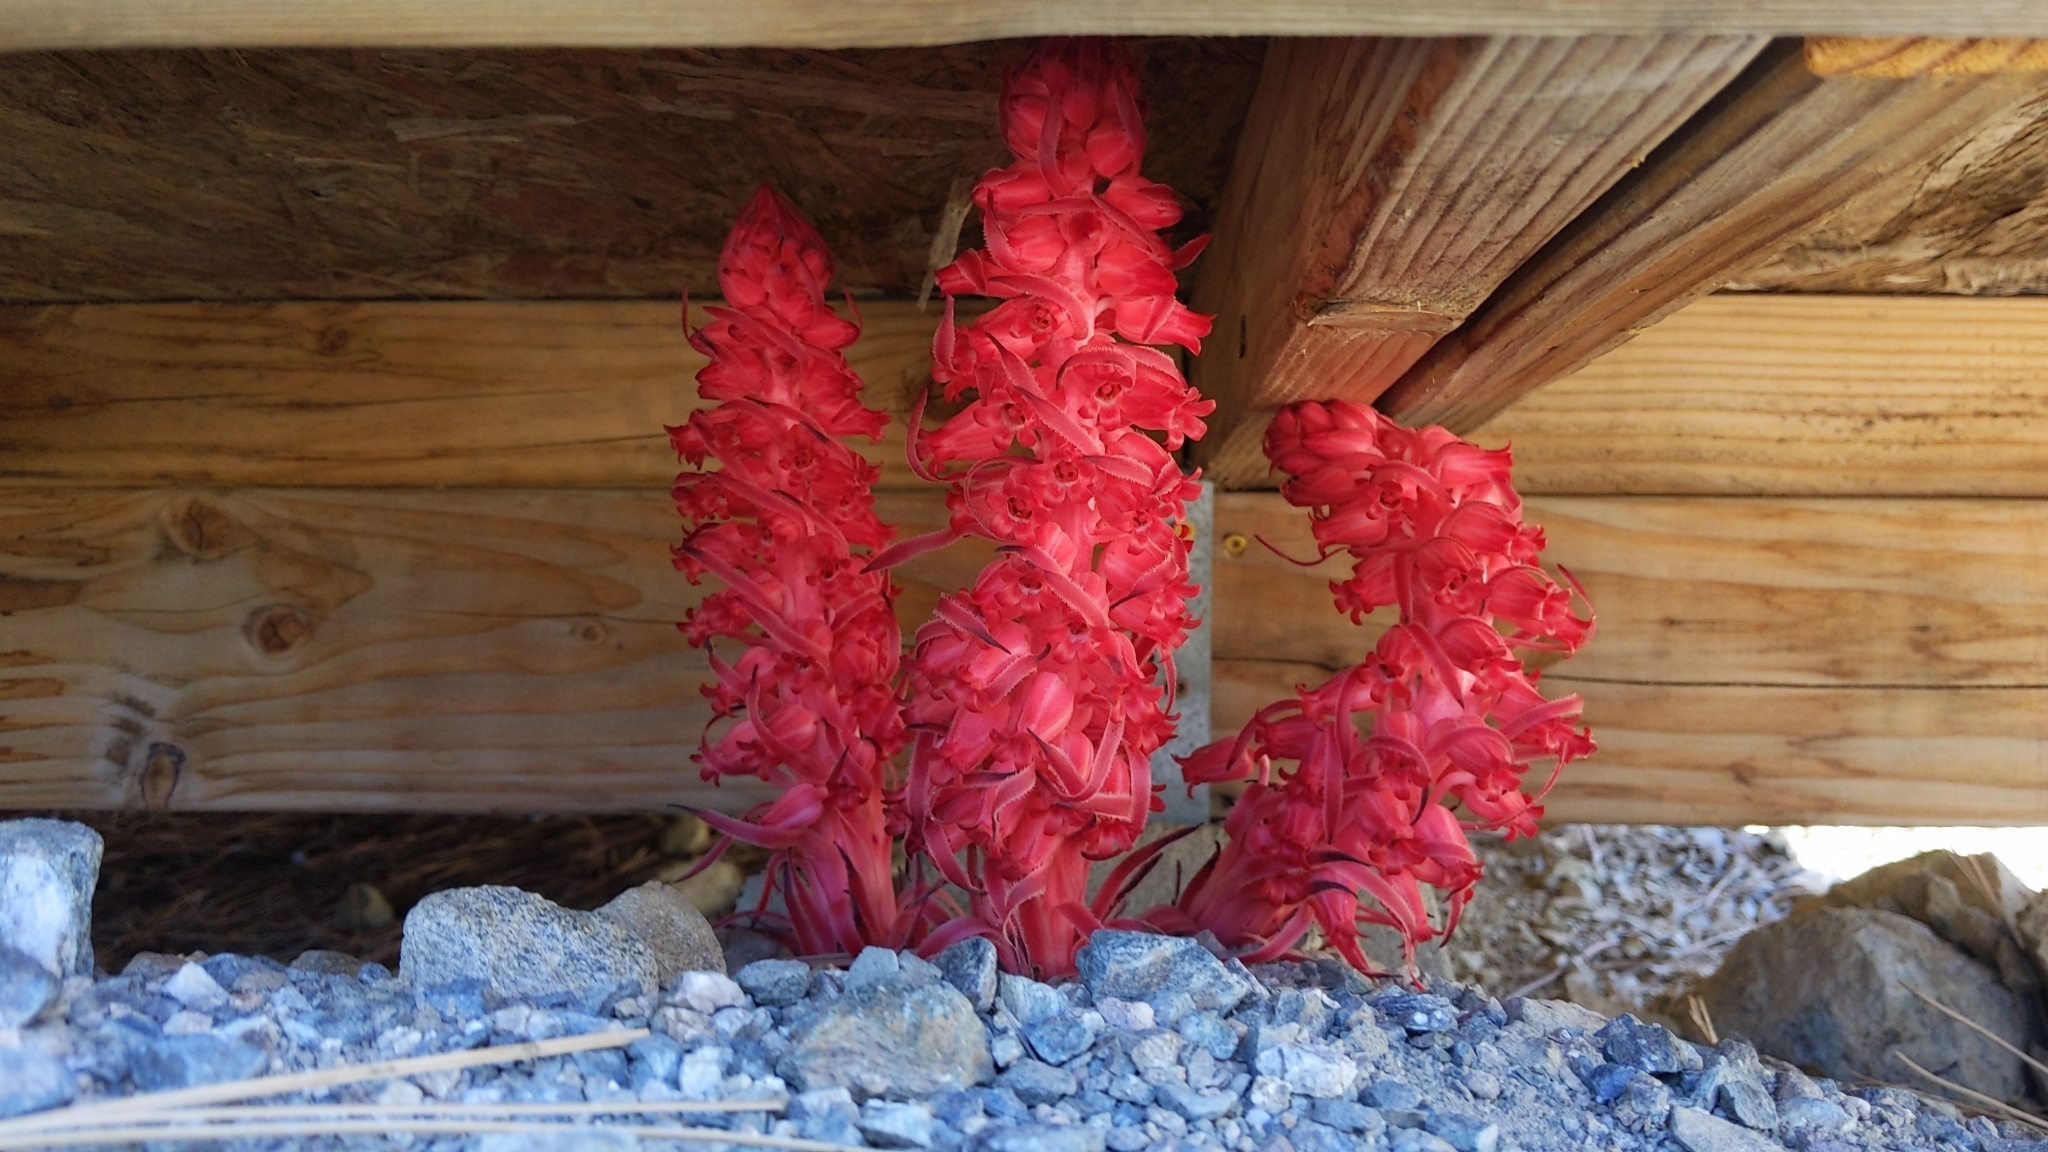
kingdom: Plantae
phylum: Tracheophyta
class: Magnoliopsida
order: Ericales
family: Ericaceae
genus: Sarcodes
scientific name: Sarcodes sanguinea
